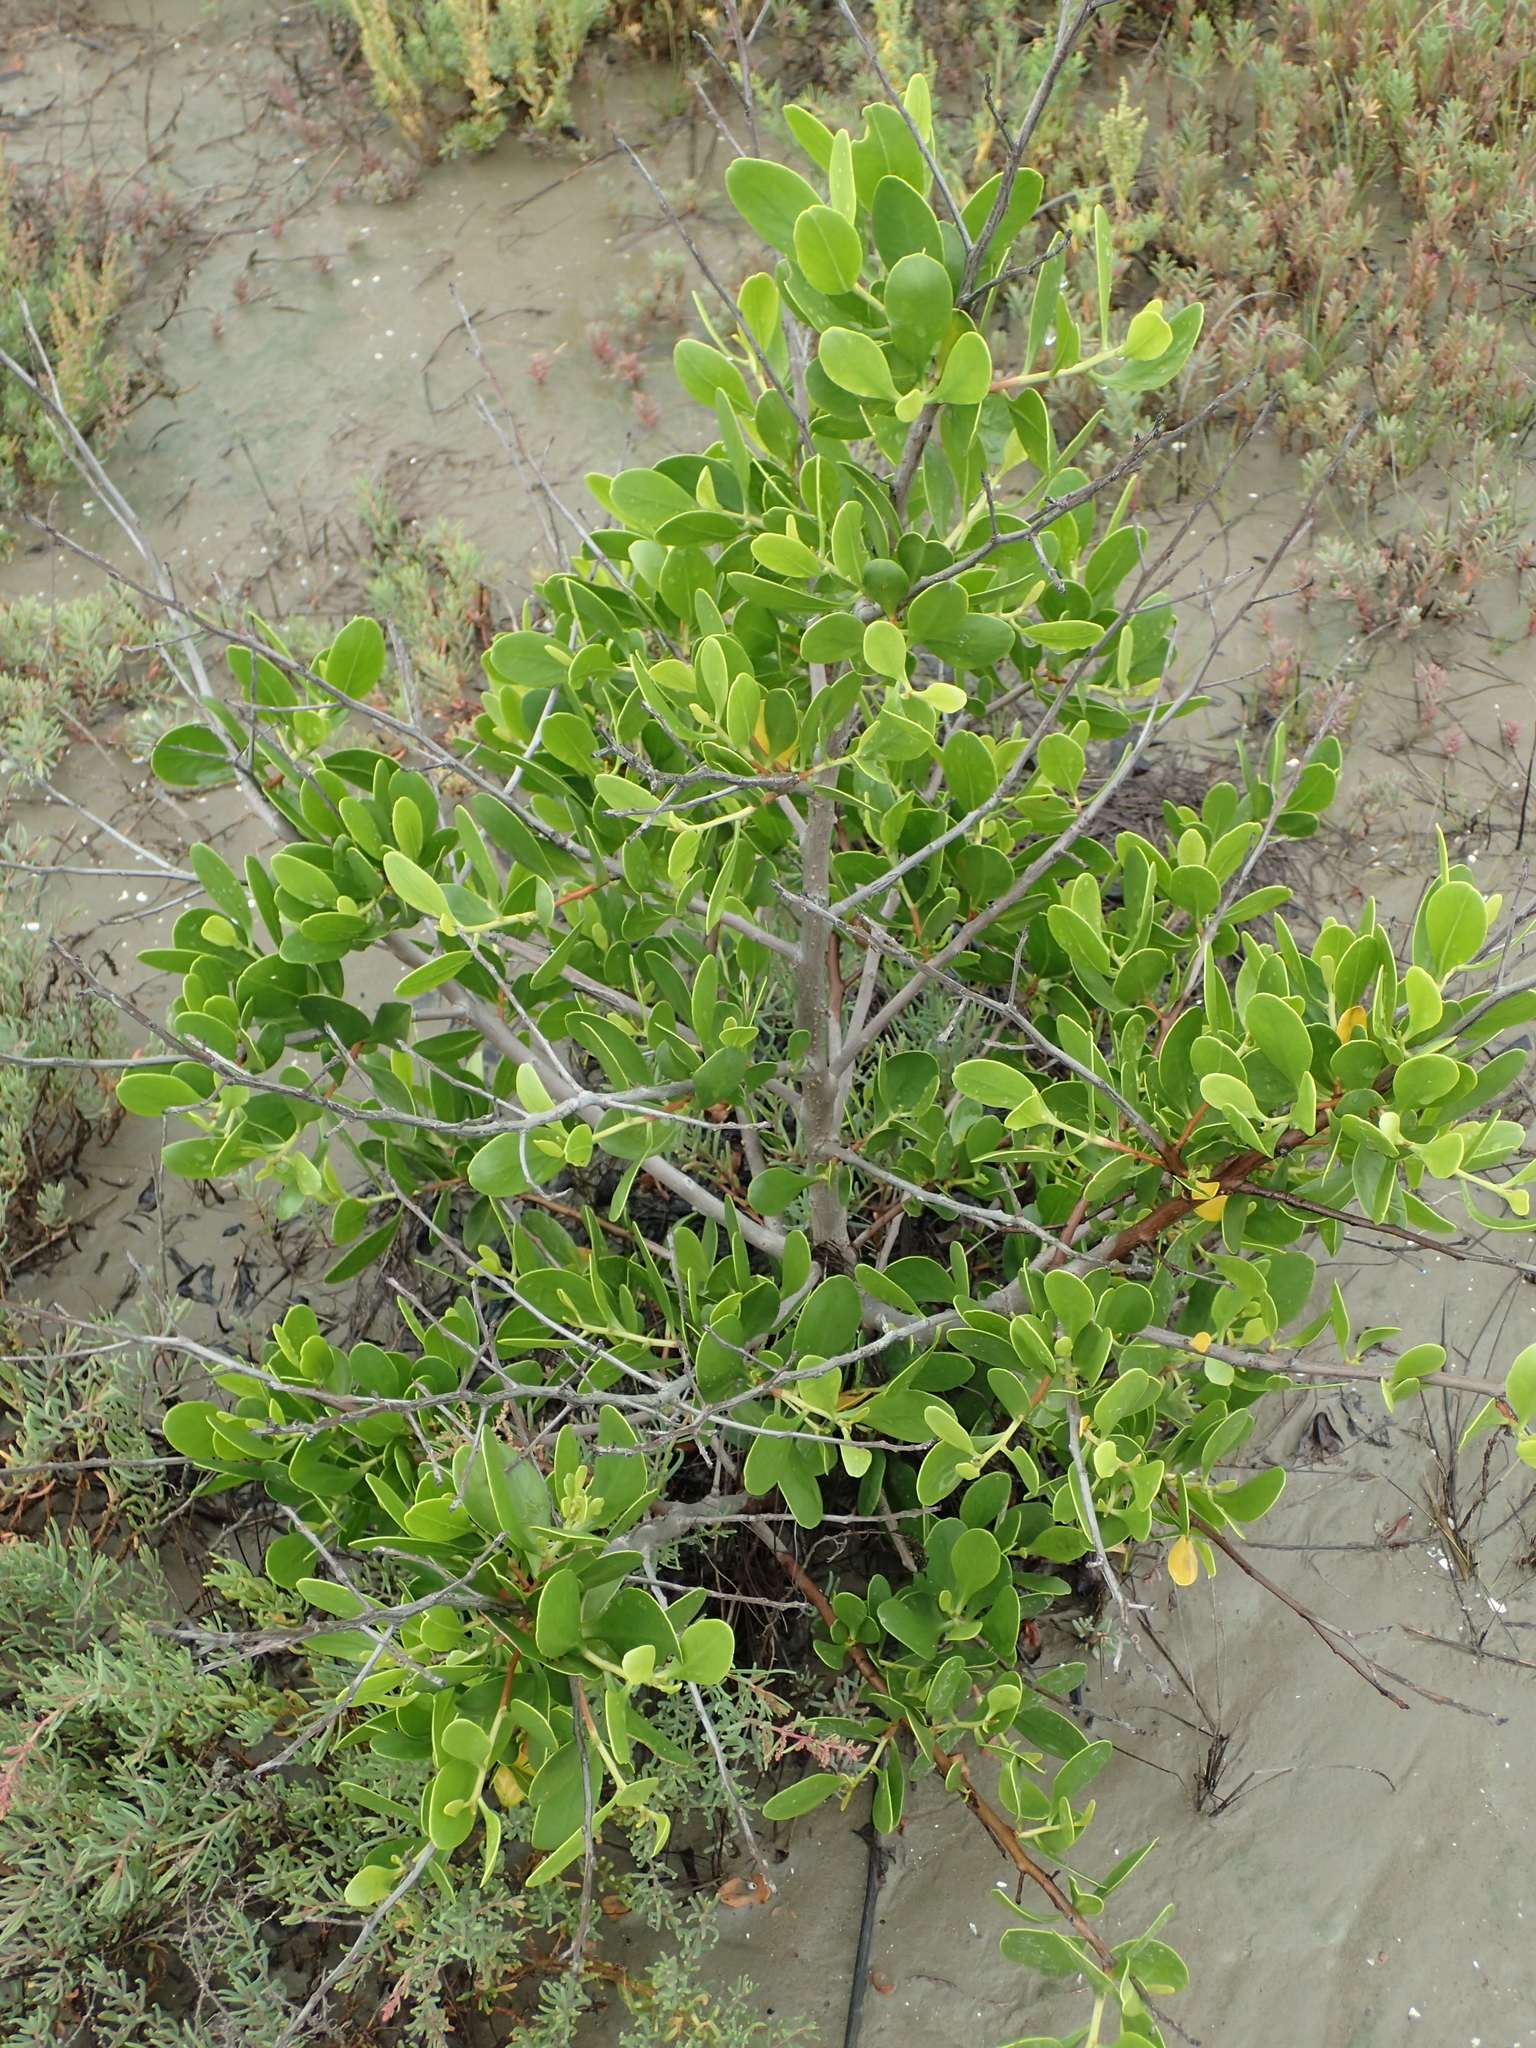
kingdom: Plantae
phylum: Tracheophyta
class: Magnoliopsida
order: Myrtales
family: Combretaceae
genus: Lumnitzera
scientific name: Lumnitzera racemosa
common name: White-flowered black mangrove
